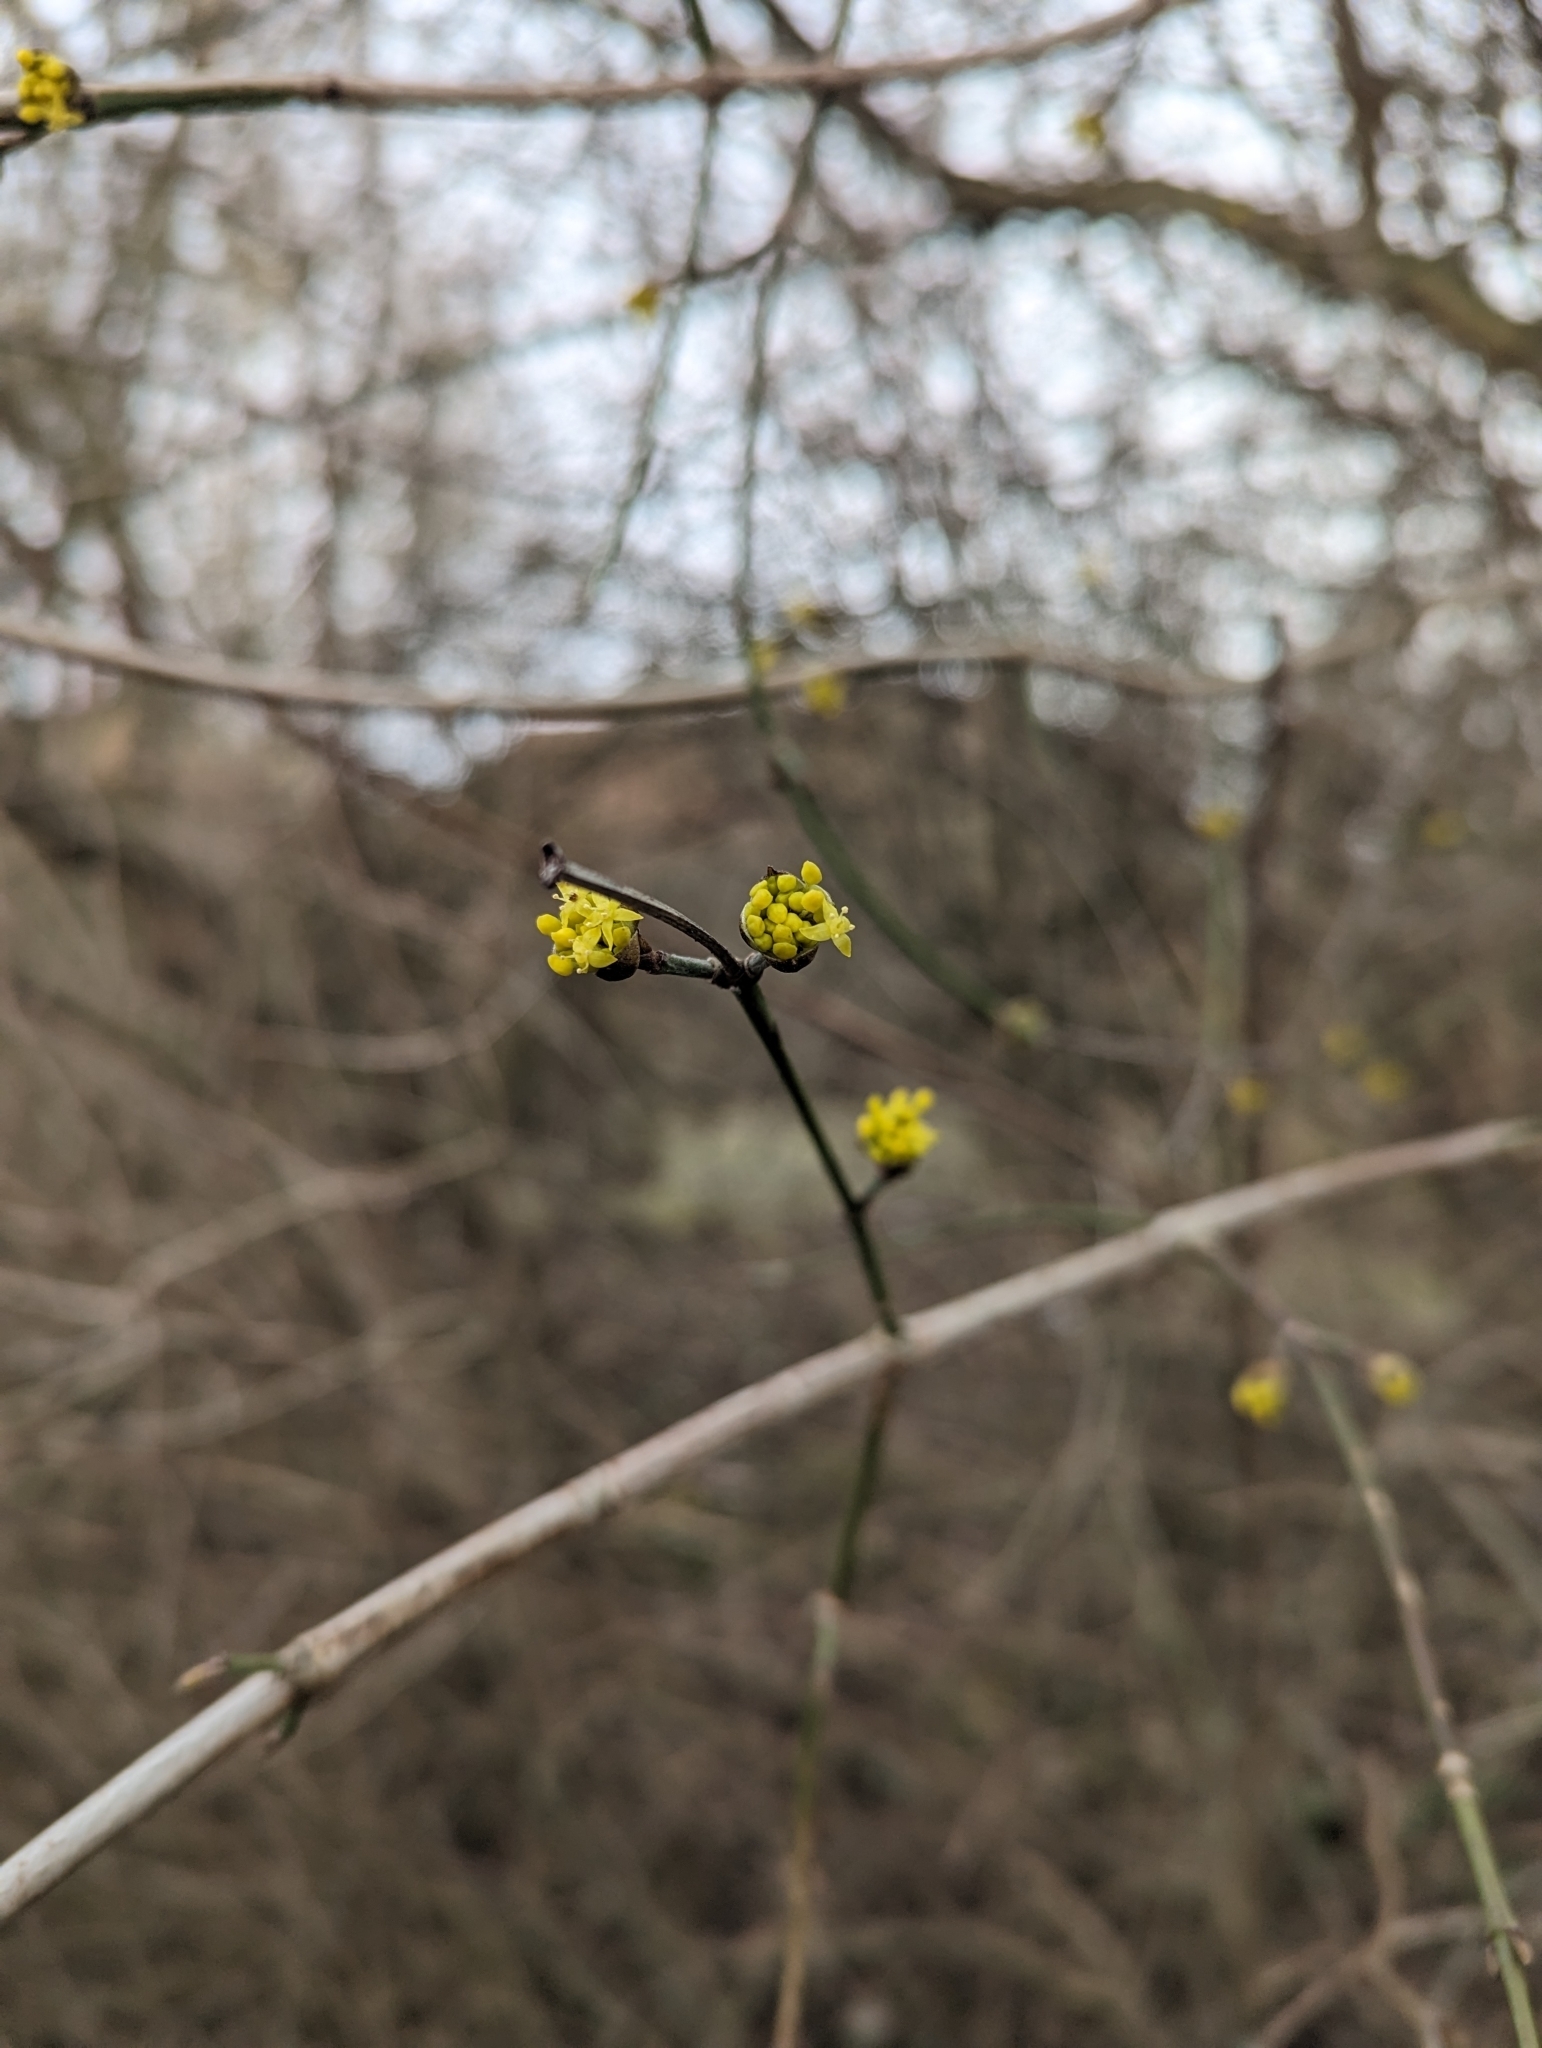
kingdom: Plantae
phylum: Tracheophyta
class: Magnoliopsida
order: Cornales
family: Cornaceae
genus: Cornus
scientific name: Cornus mas
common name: Cornelian-cherry
